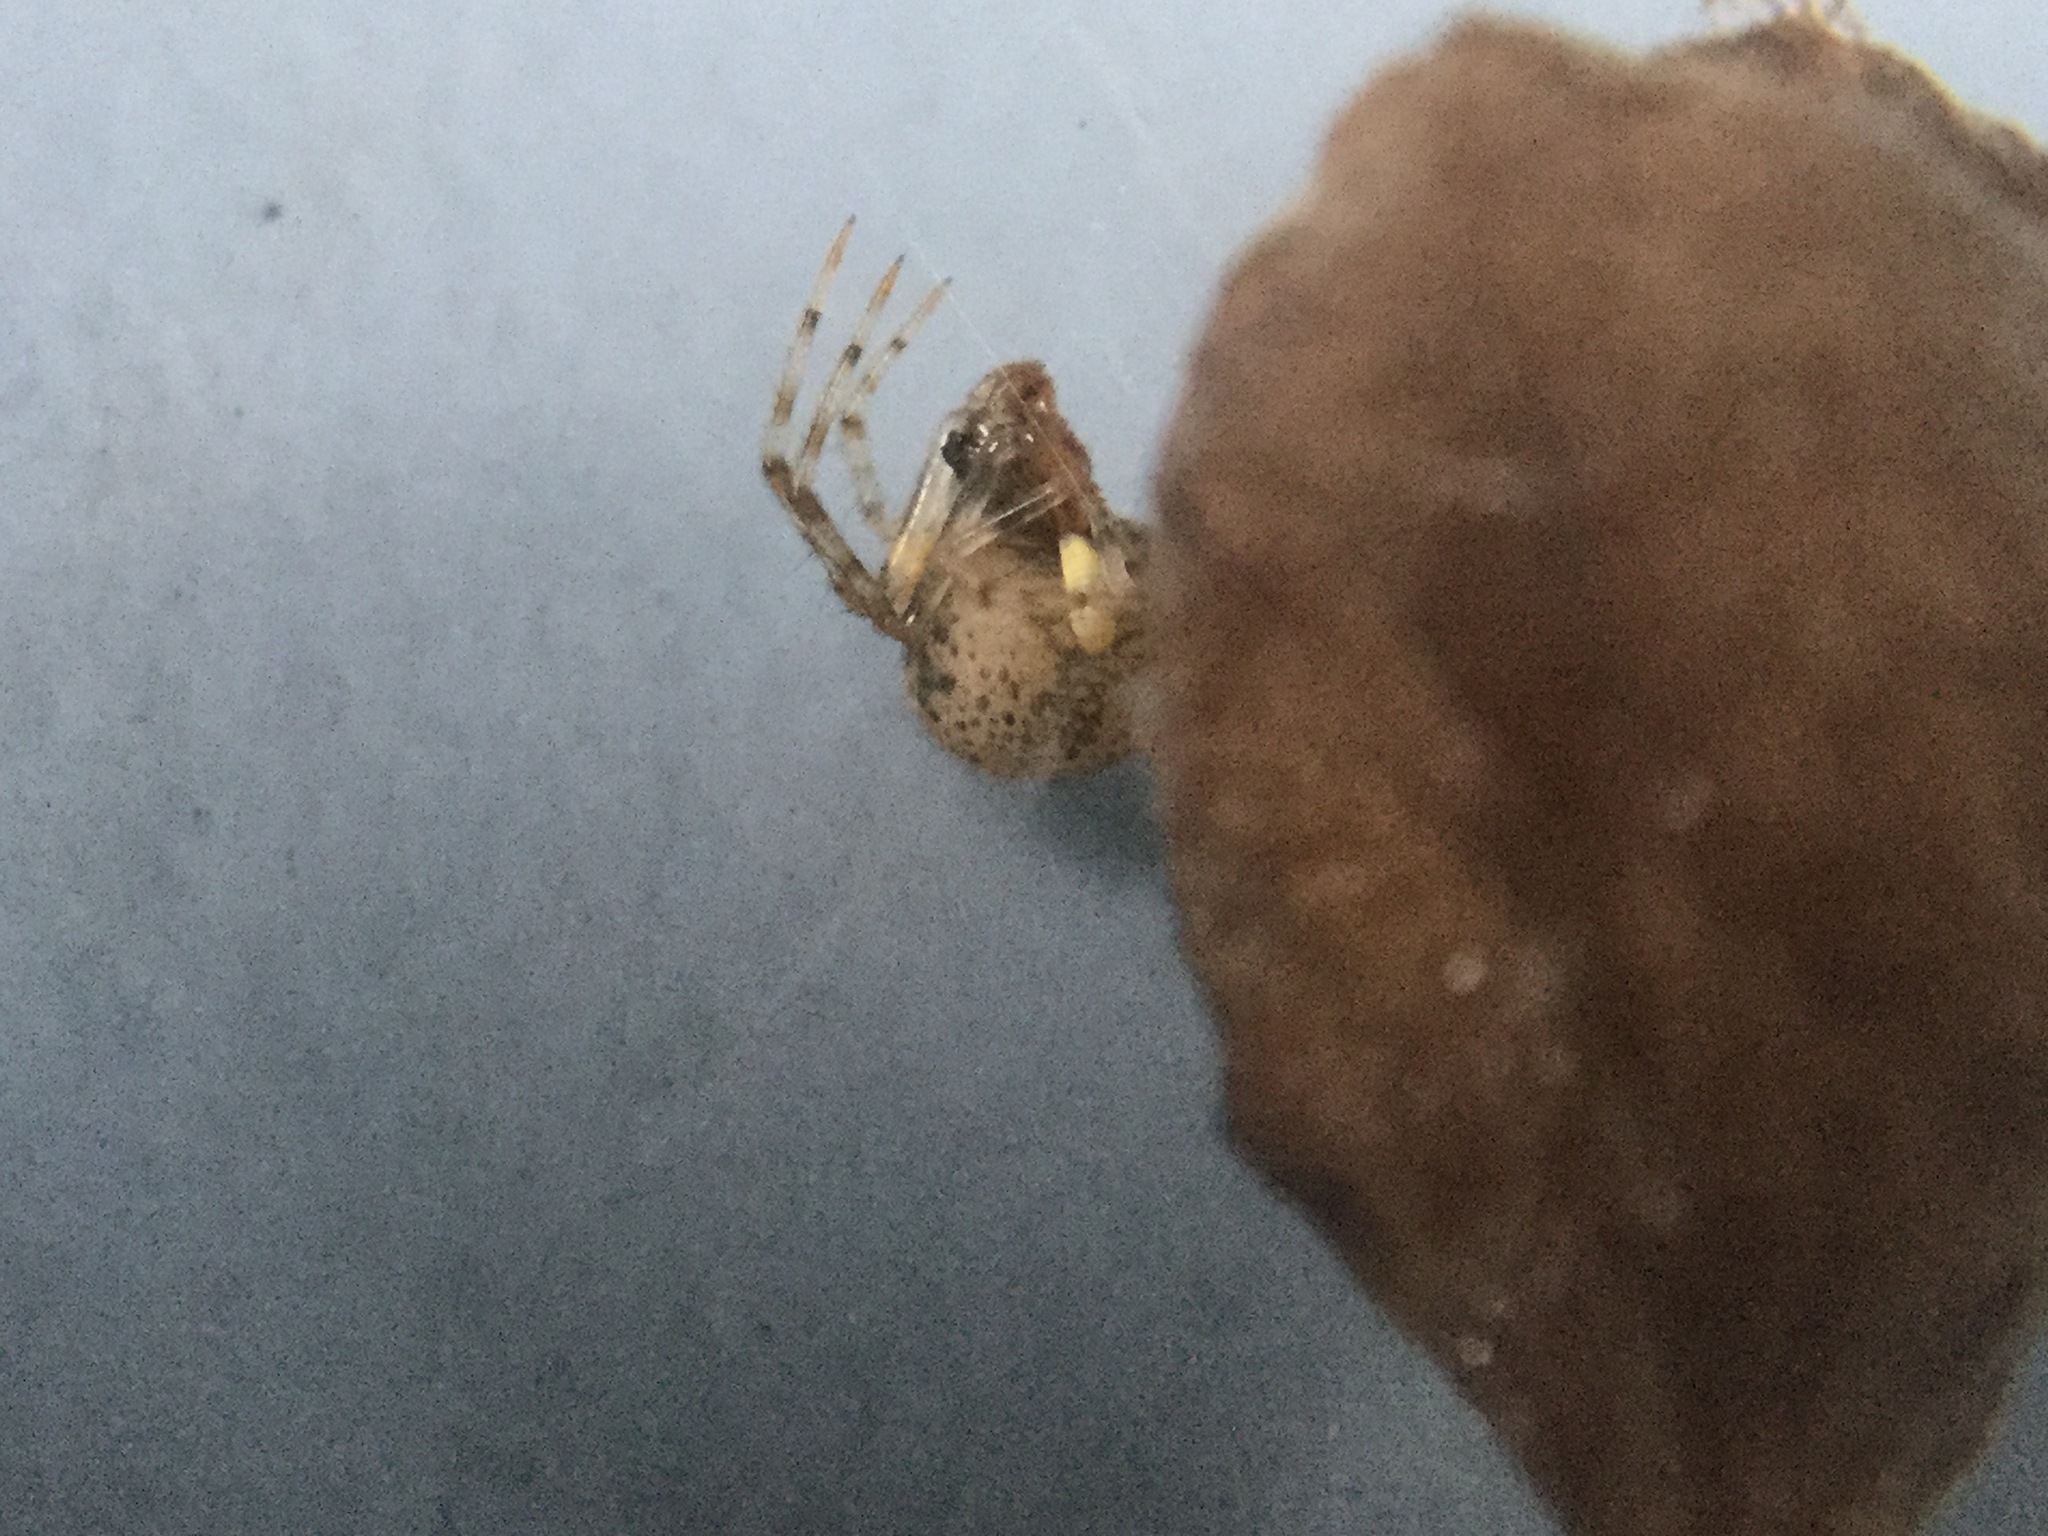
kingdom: Animalia
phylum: Arthropoda
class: Arachnida
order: Araneae
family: Theridiidae
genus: Parasteatoda
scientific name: Parasteatoda tepidariorum
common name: Common house spider
